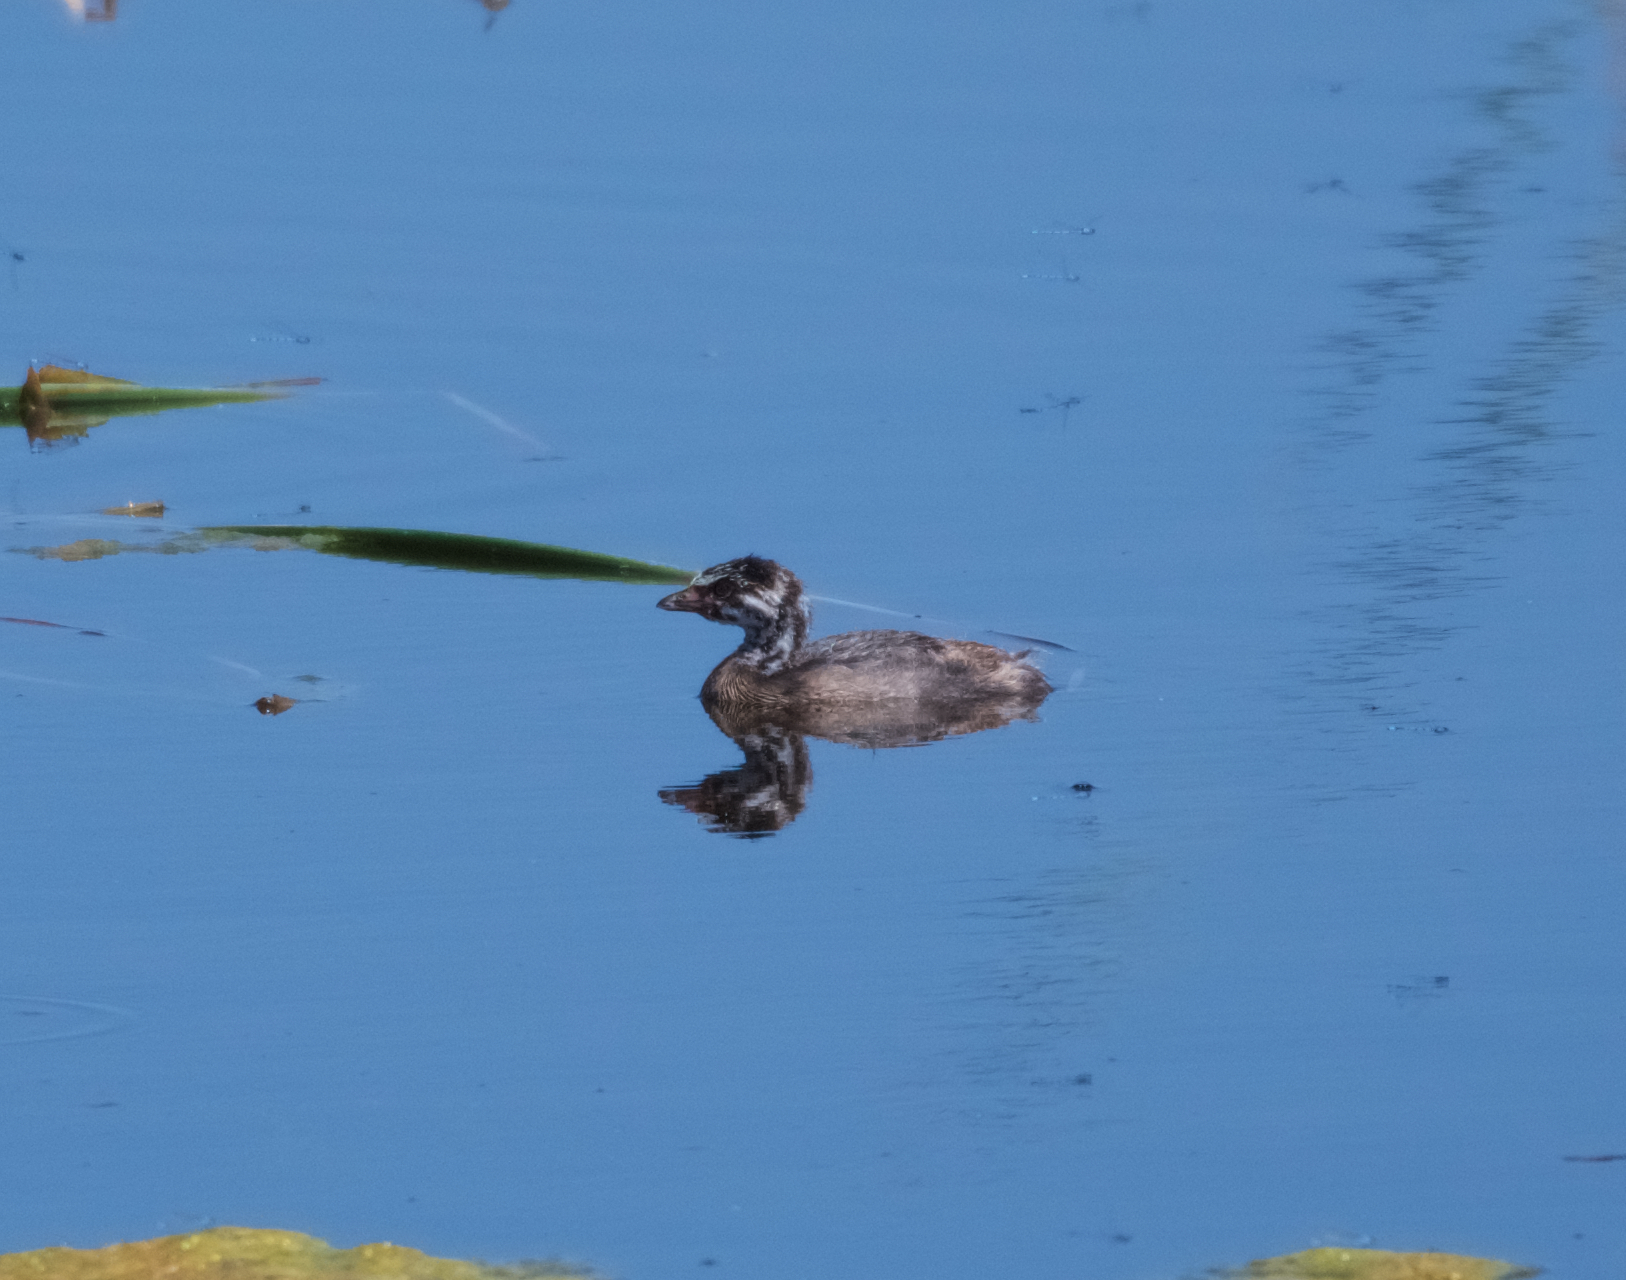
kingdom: Animalia
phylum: Chordata
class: Aves
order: Podicipediformes
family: Podicipedidae
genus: Podilymbus
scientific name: Podilymbus podiceps
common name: Pied-billed grebe
